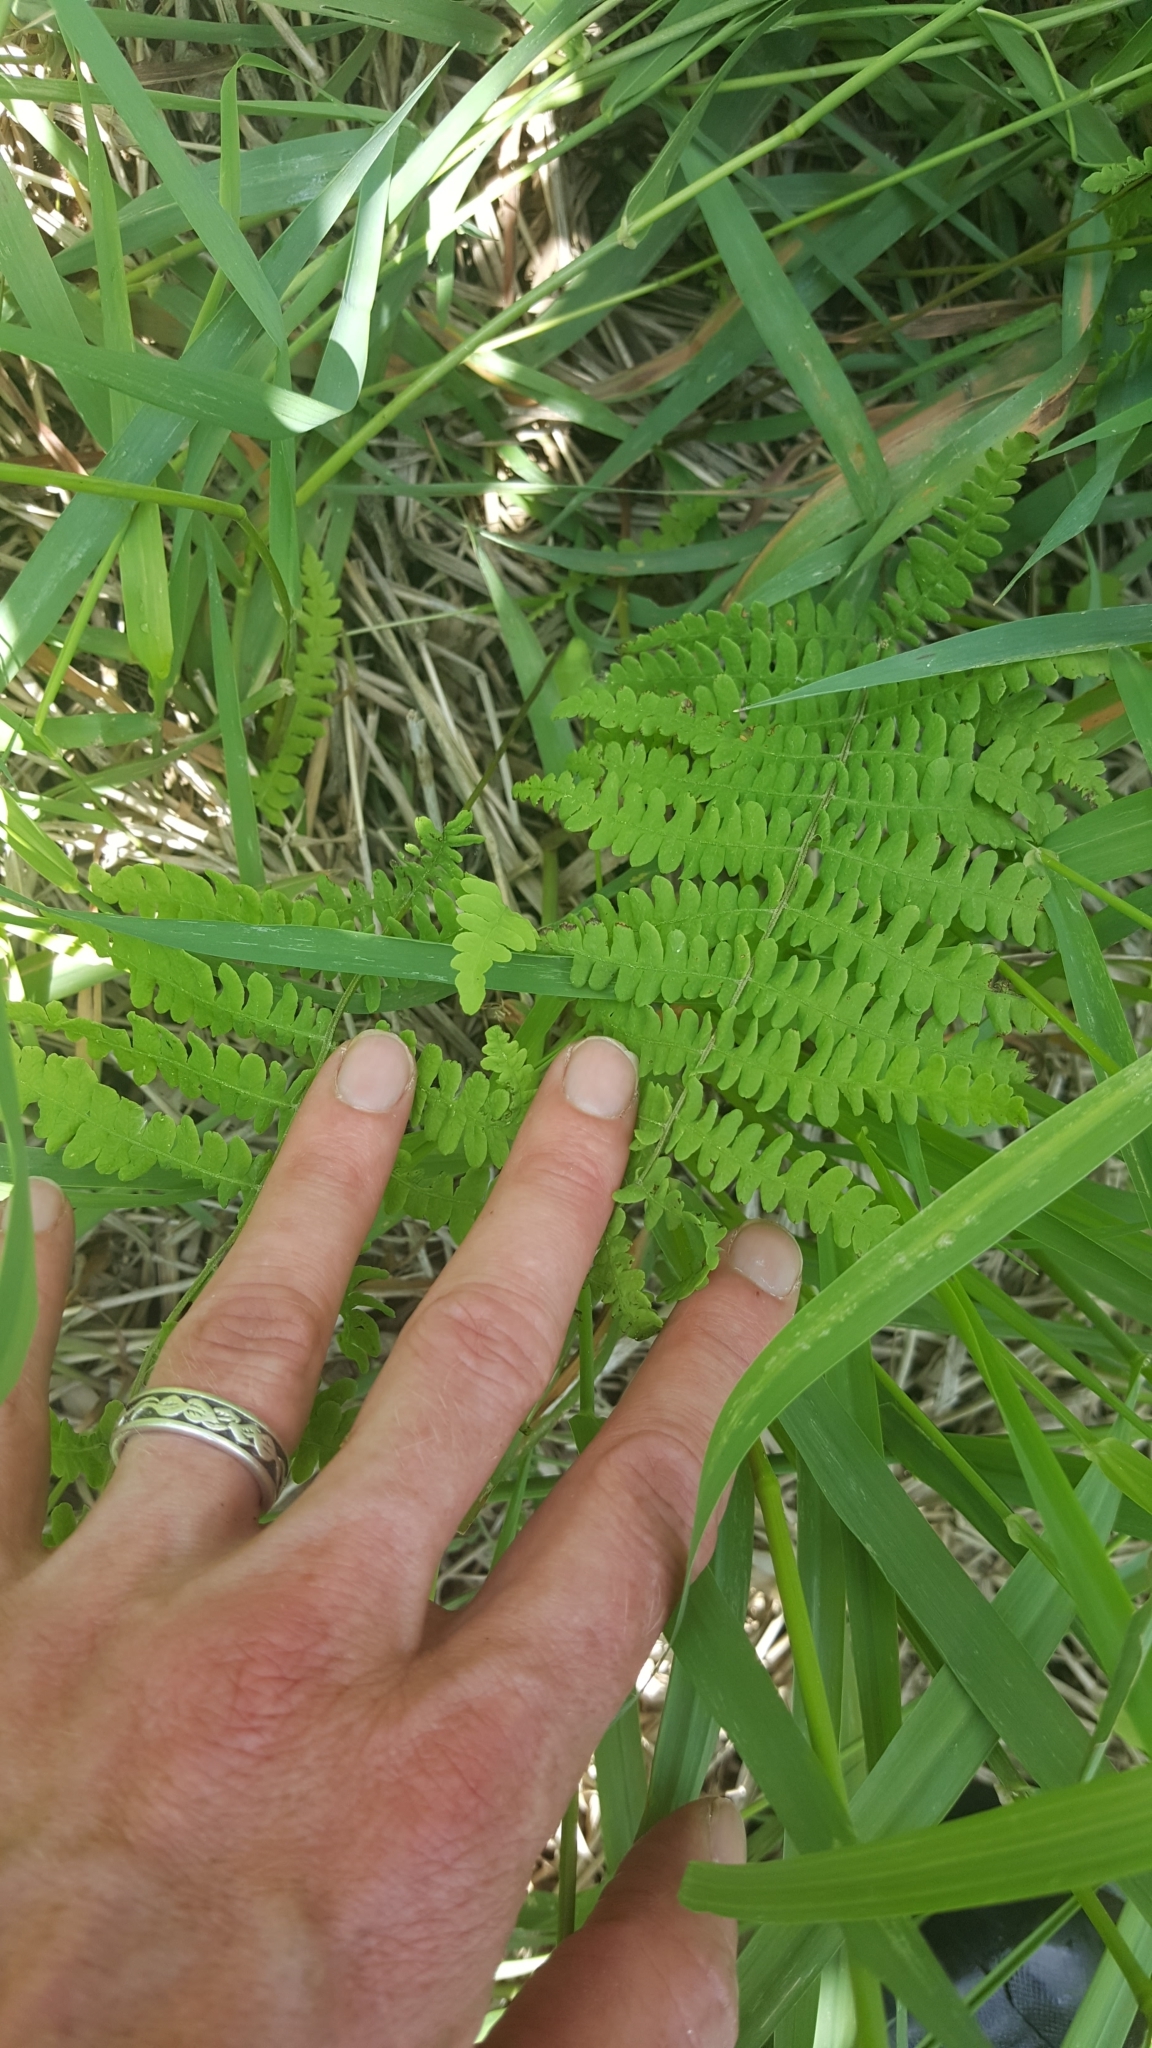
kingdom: Plantae
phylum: Tracheophyta
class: Polypodiopsida
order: Polypodiales
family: Thelypteridaceae
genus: Thelypteris
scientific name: Thelypteris palustris
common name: Marsh fern
